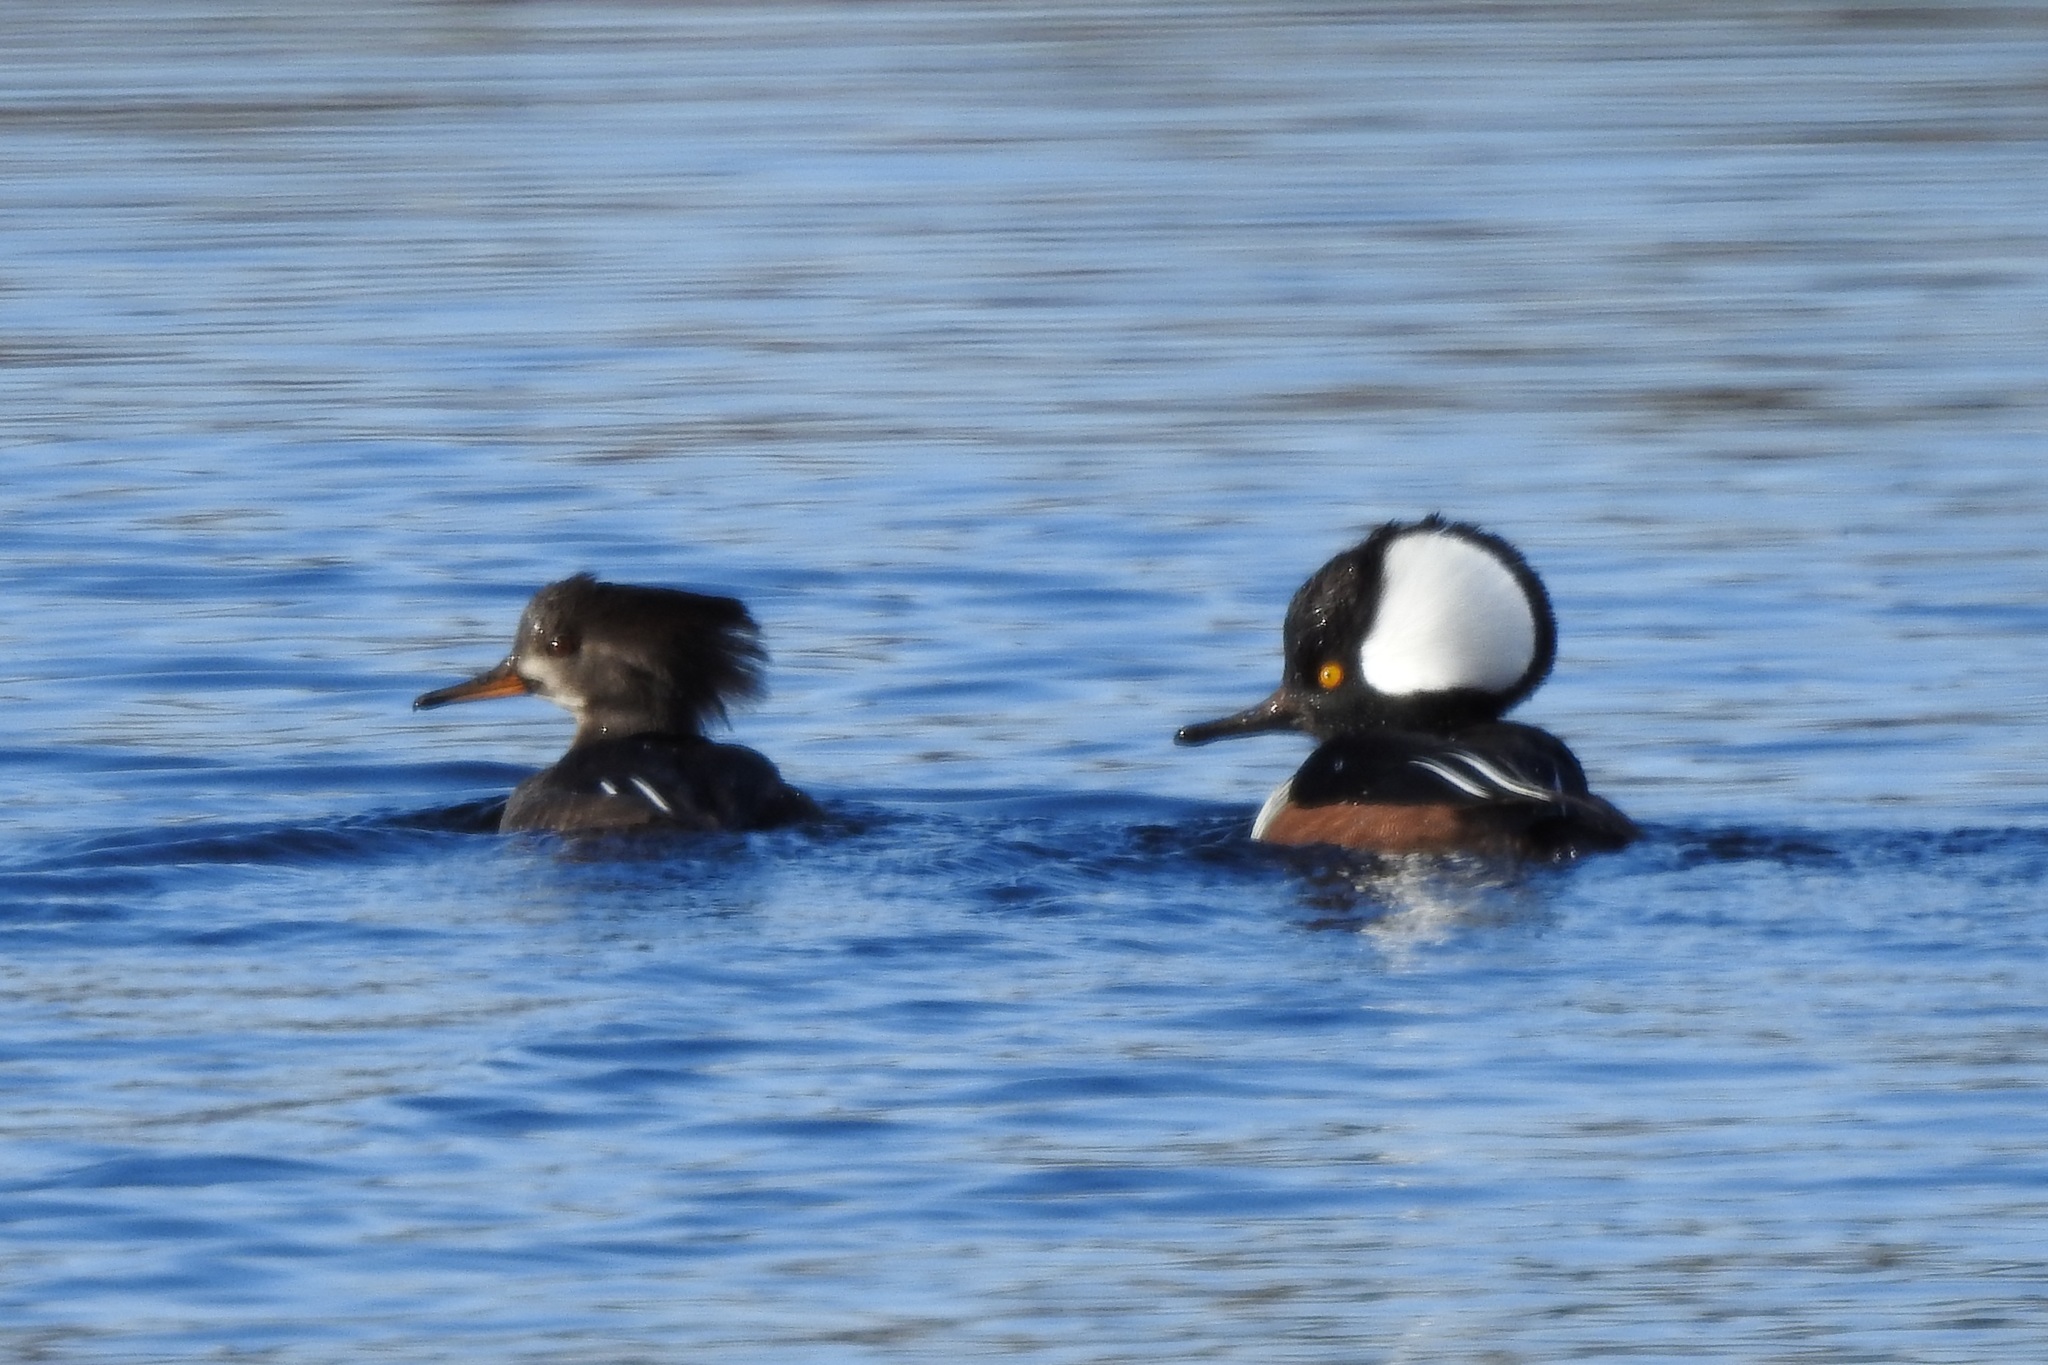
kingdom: Animalia
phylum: Chordata
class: Aves
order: Anseriformes
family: Anatidae
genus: Lophodytes
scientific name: Lophodytes cucullatus
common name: Hooded merganser
